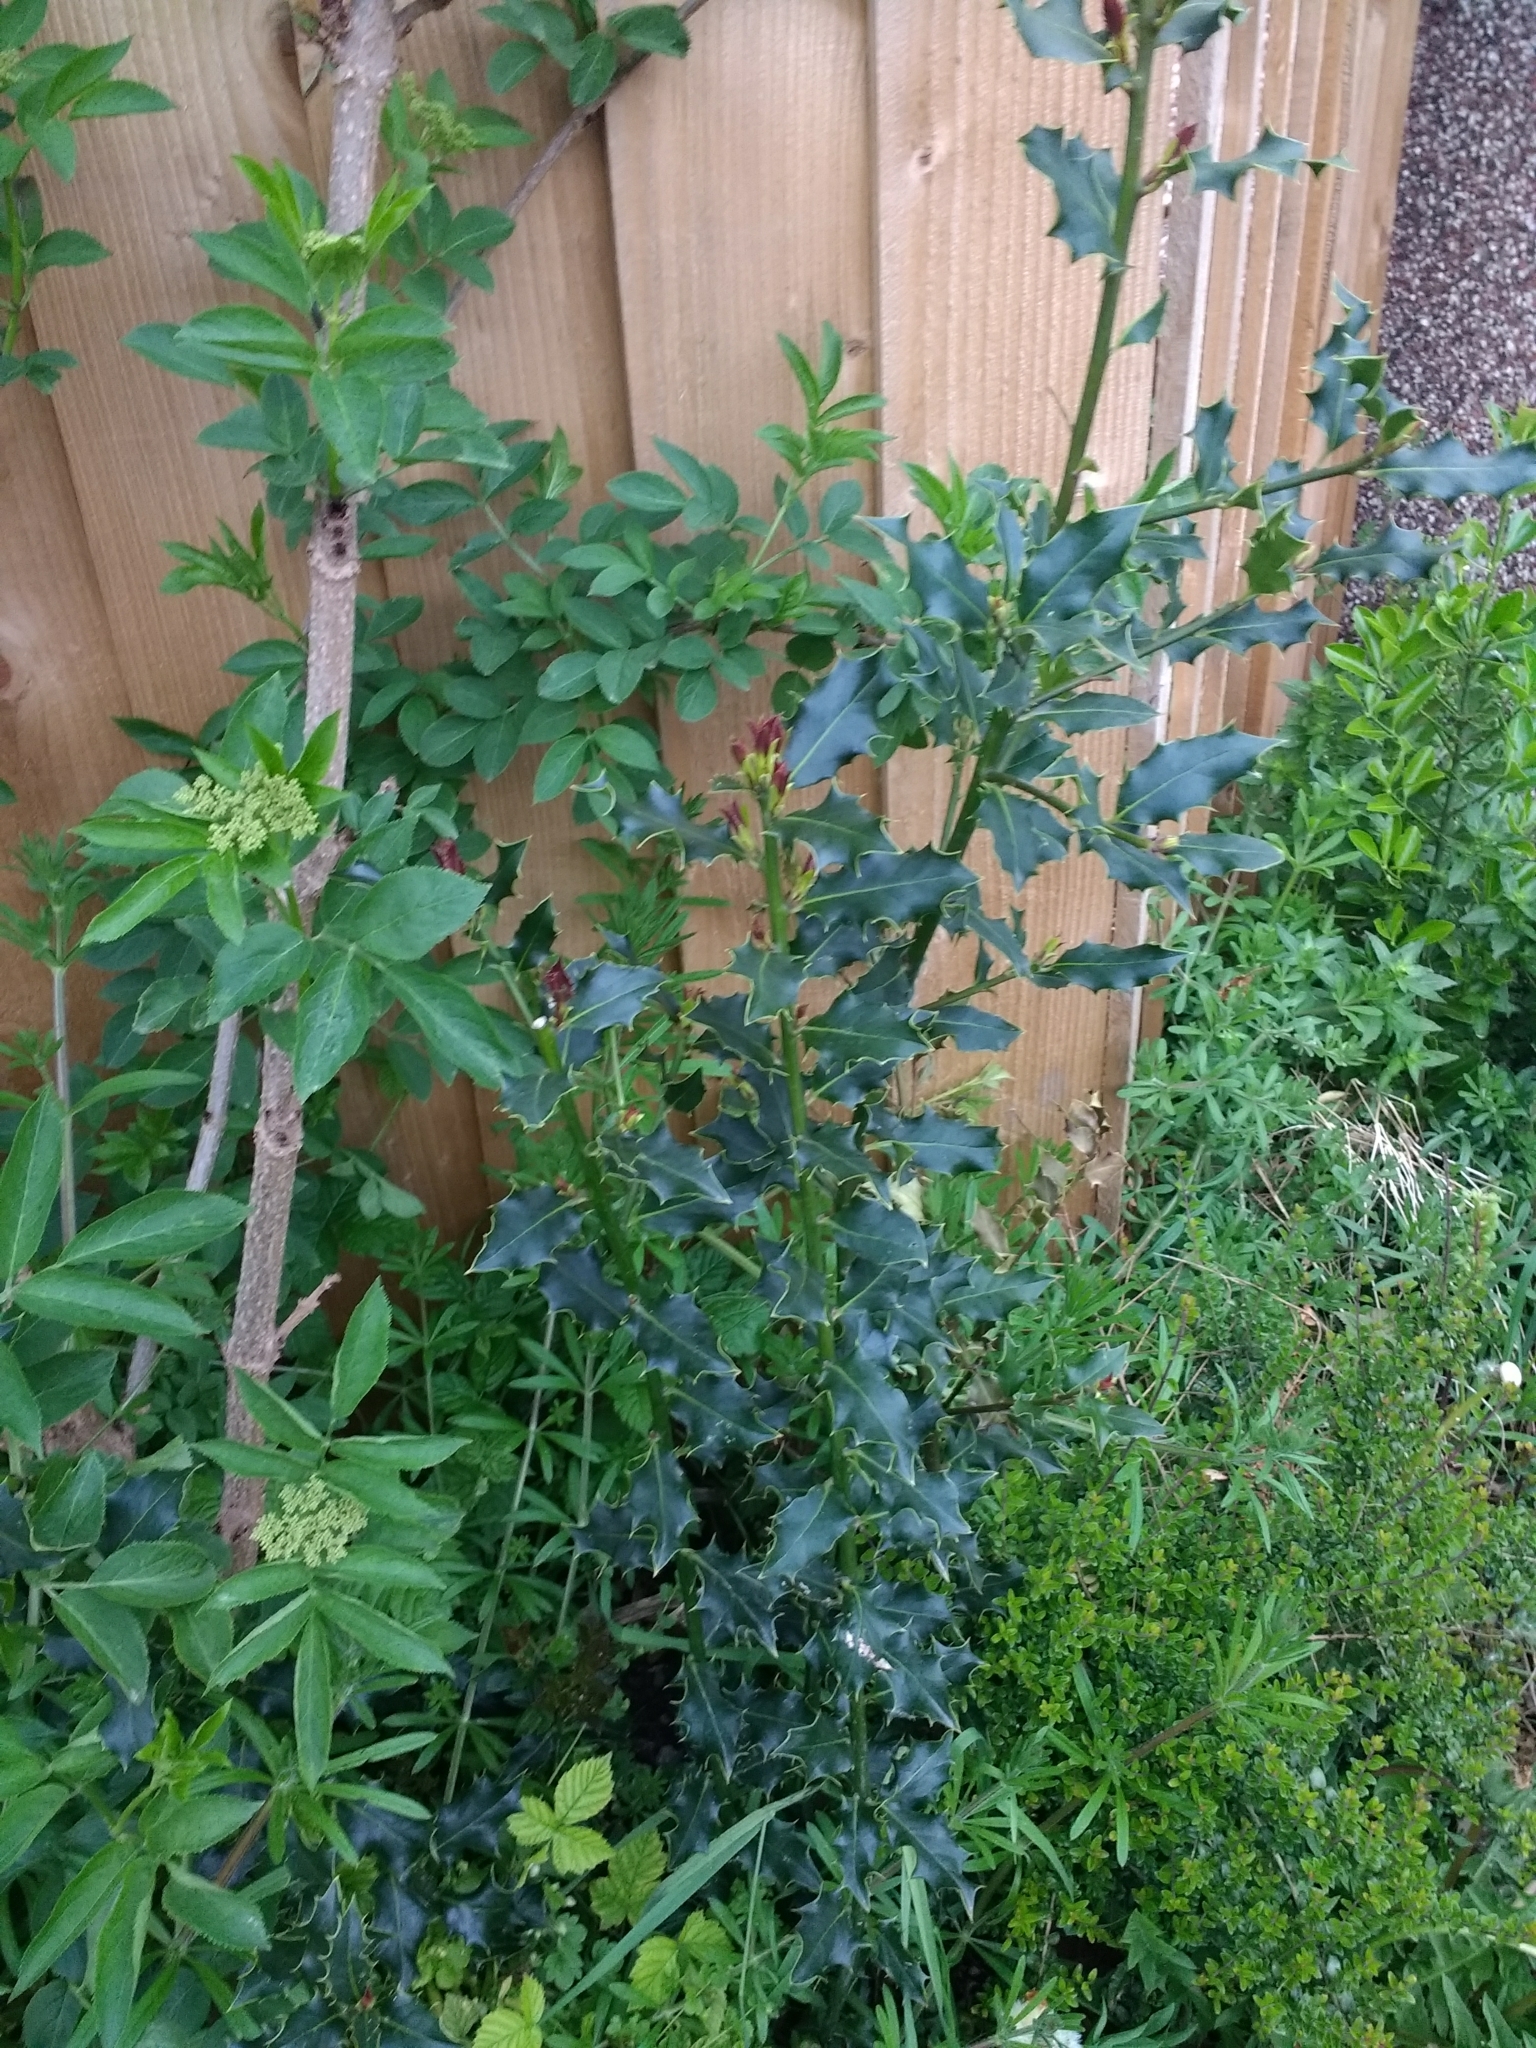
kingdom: Plantae
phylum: Tracheophyta
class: Magnoliopsida
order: Aquifoliales
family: Aquifoliaceae
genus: Ilex
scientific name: Ilex aquifolium
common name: English holly
